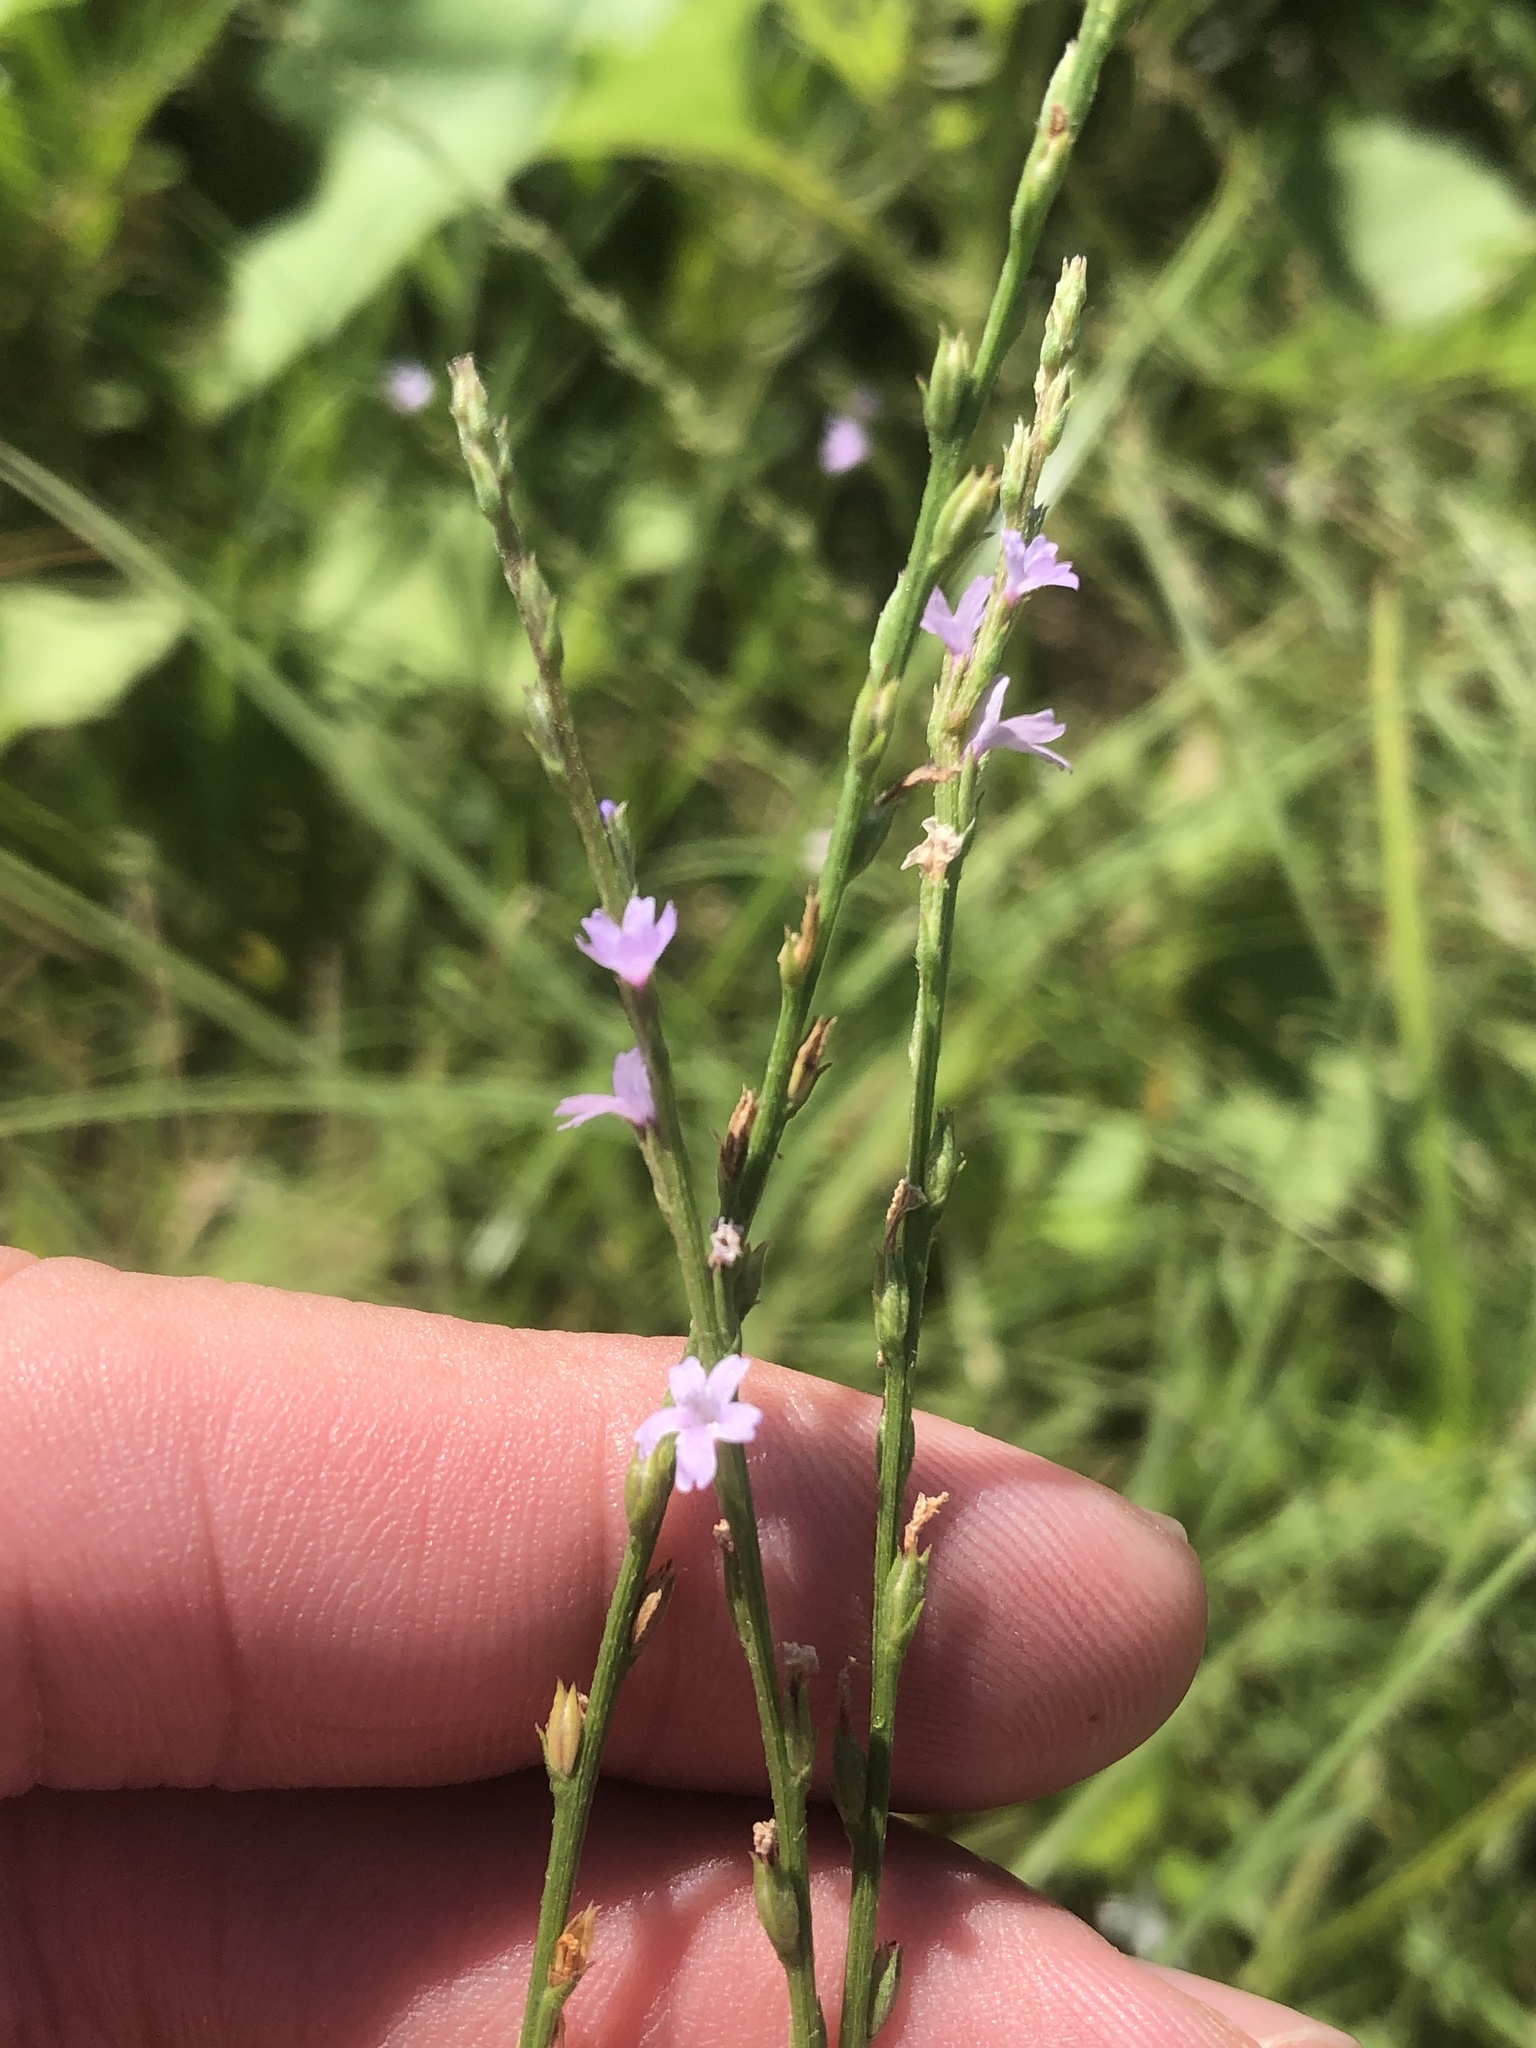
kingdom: Plantae
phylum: Tracheophyta
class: Magnoliopsida
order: Lamiales
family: Verbenaceae
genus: Verbena
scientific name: Verbena halei
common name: Texas vervain
